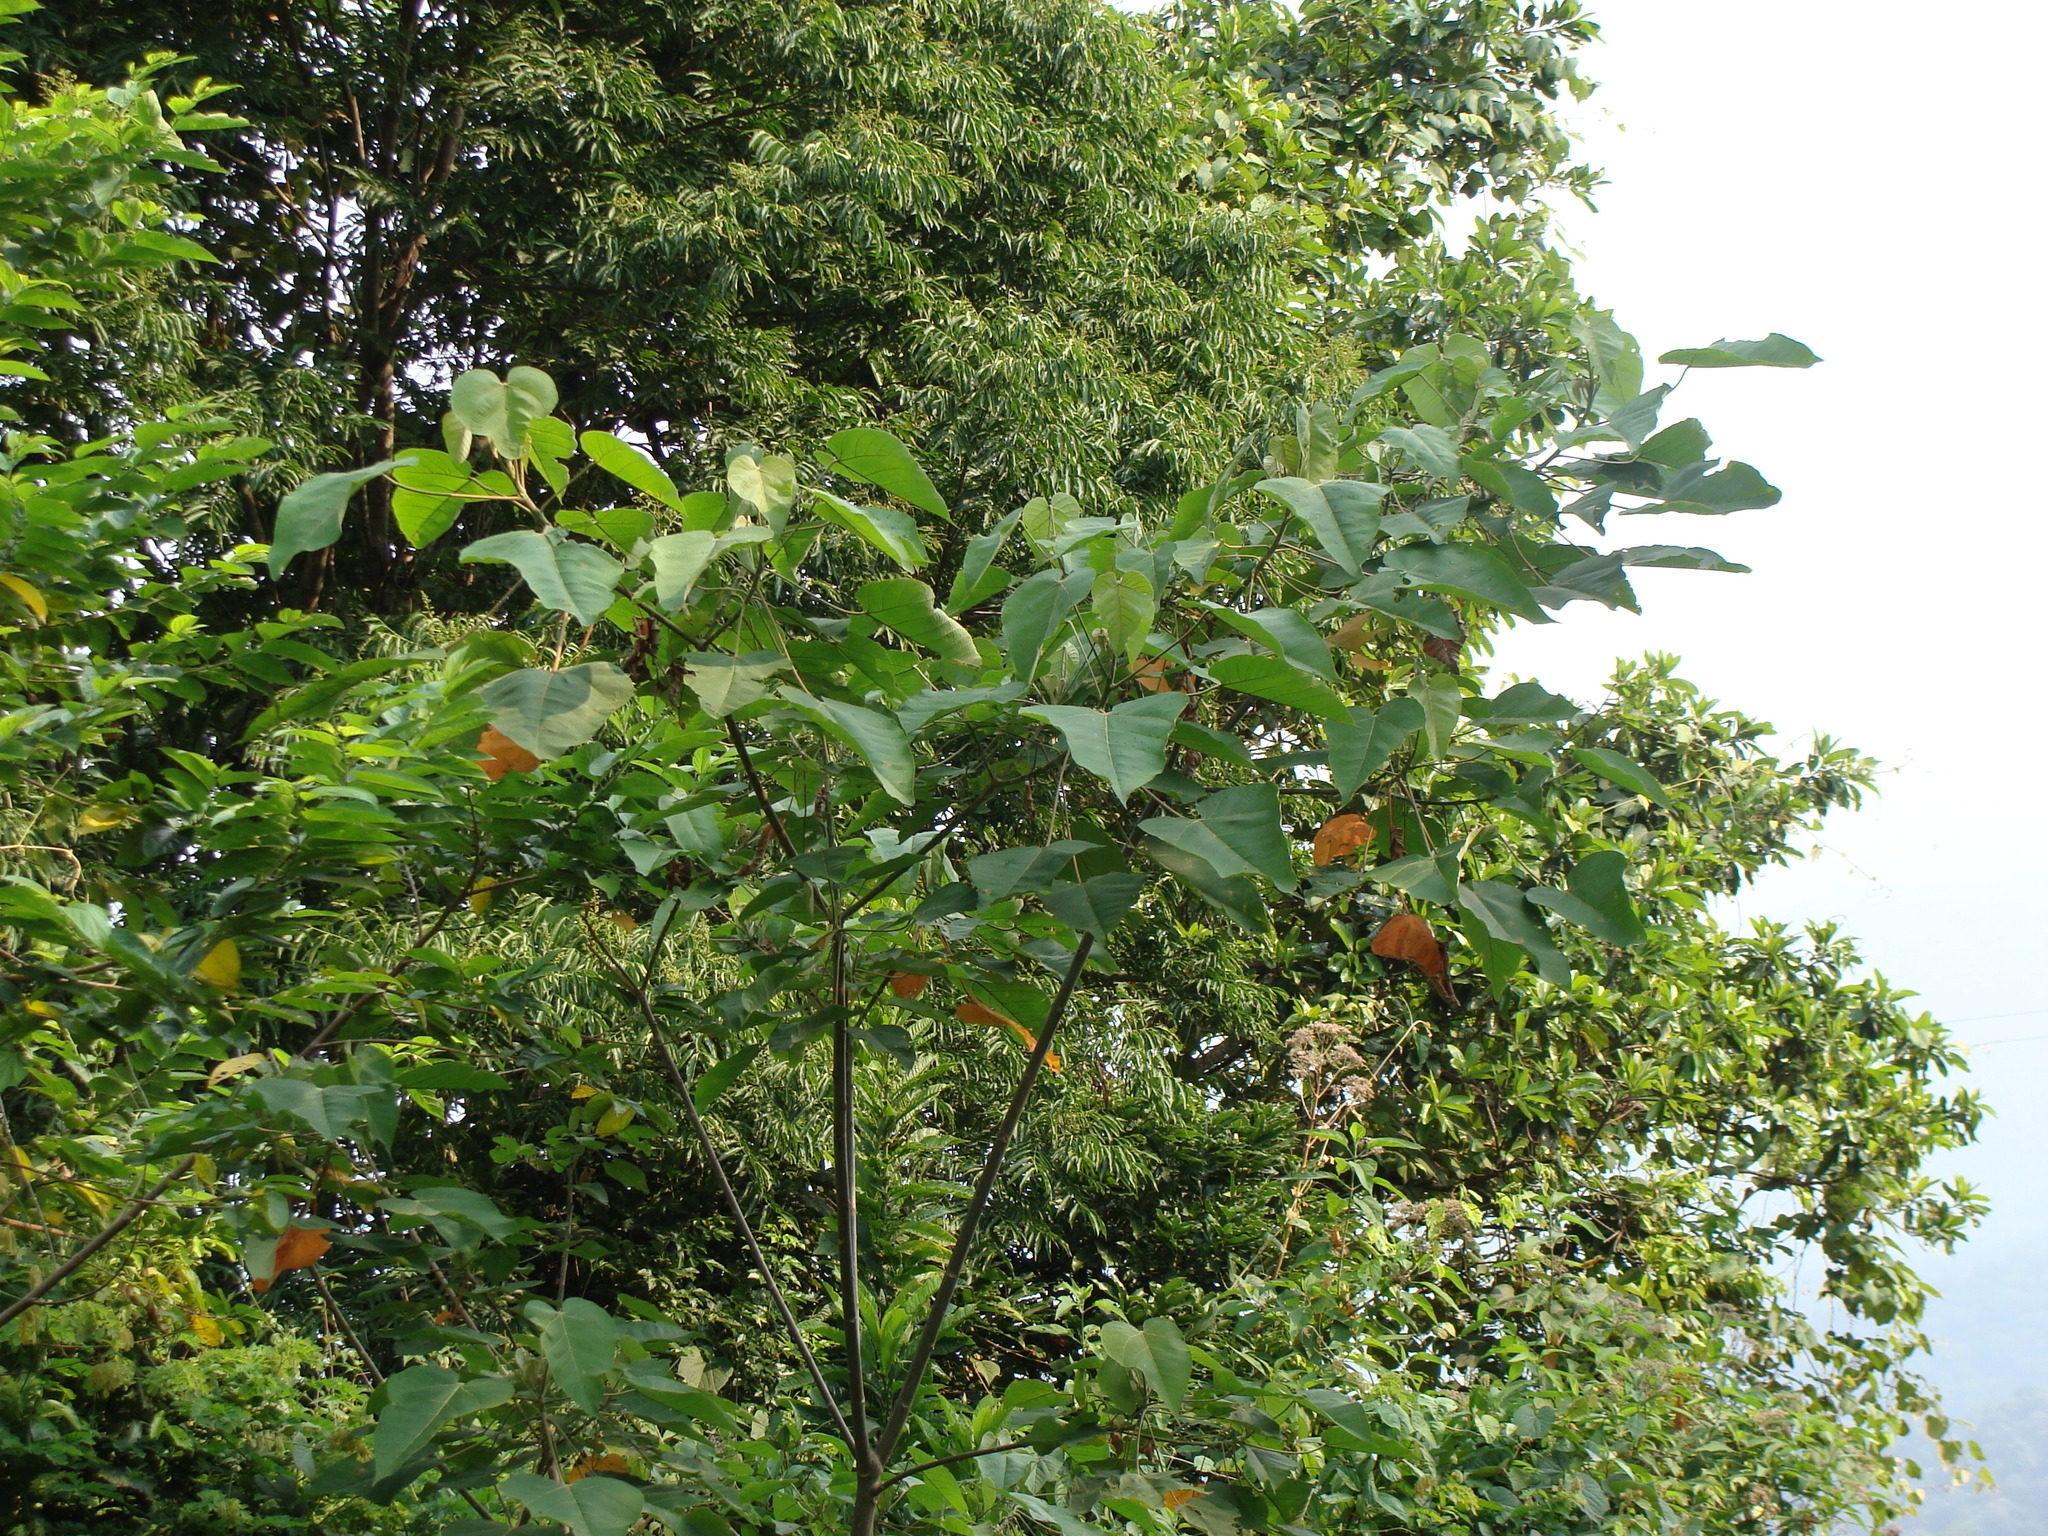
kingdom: Plantae
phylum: Tracheophyta
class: Magnoliopsida
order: Malpighiales
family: Euphorbiaceae
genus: Croton
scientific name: Croton draco
